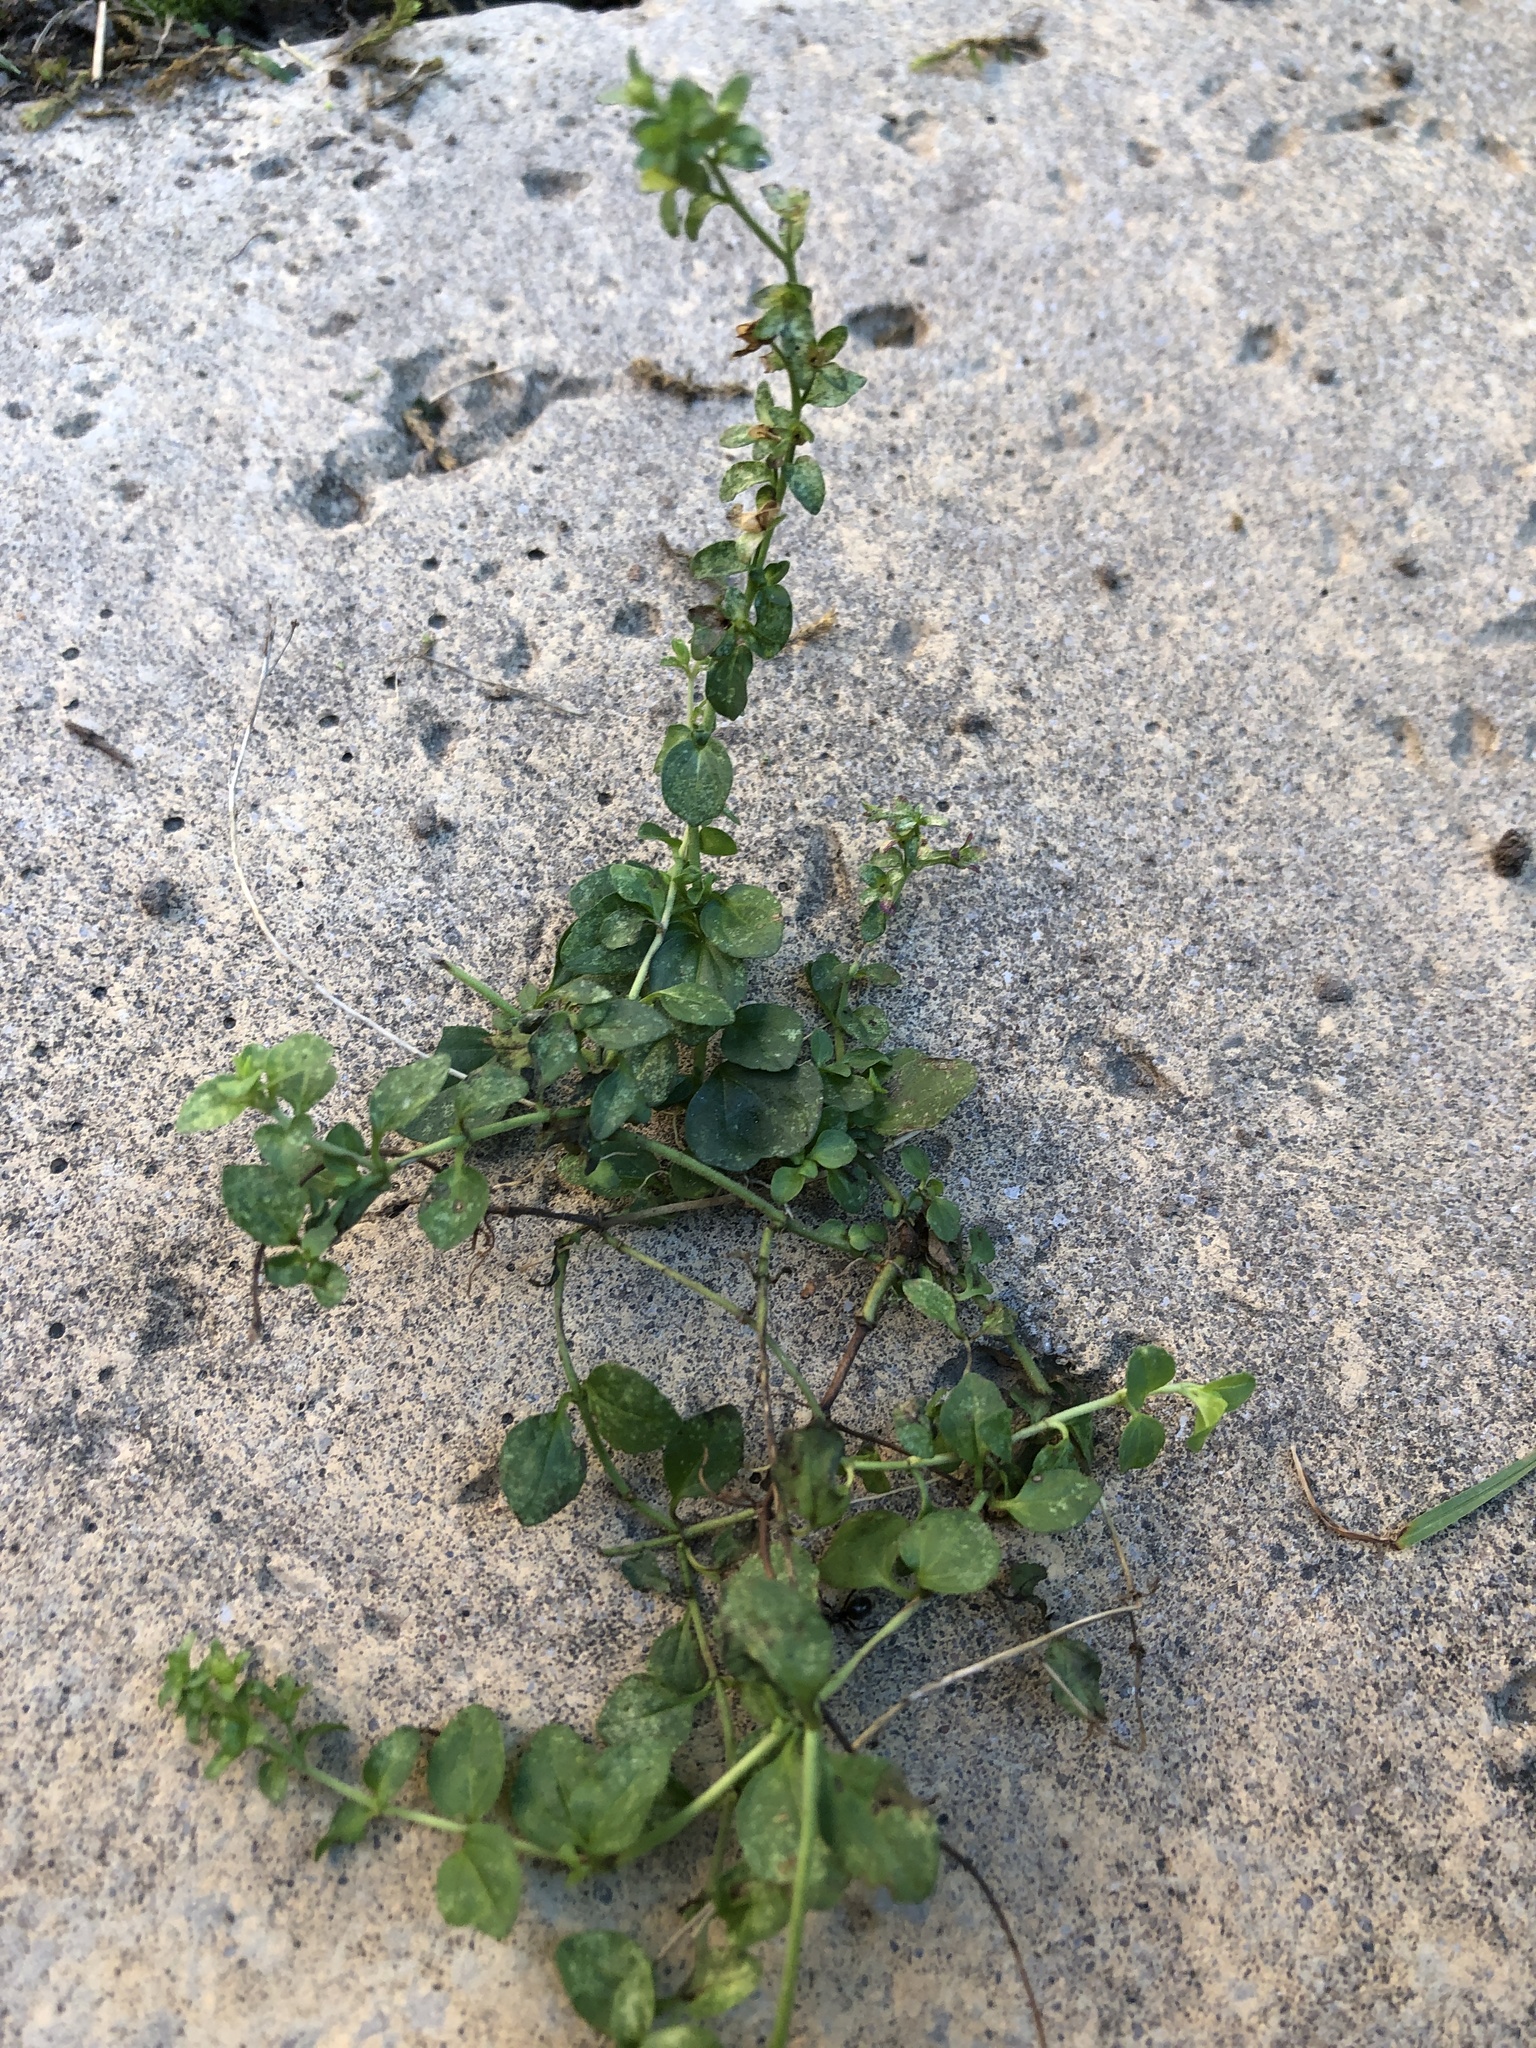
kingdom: Plantae
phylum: Tracheophyta
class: Magnoliopsida
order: Lamiales
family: Plantaginaceae
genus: Veronica
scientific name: Veronica serpyllifolia
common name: Thyme-leaved speedwell
